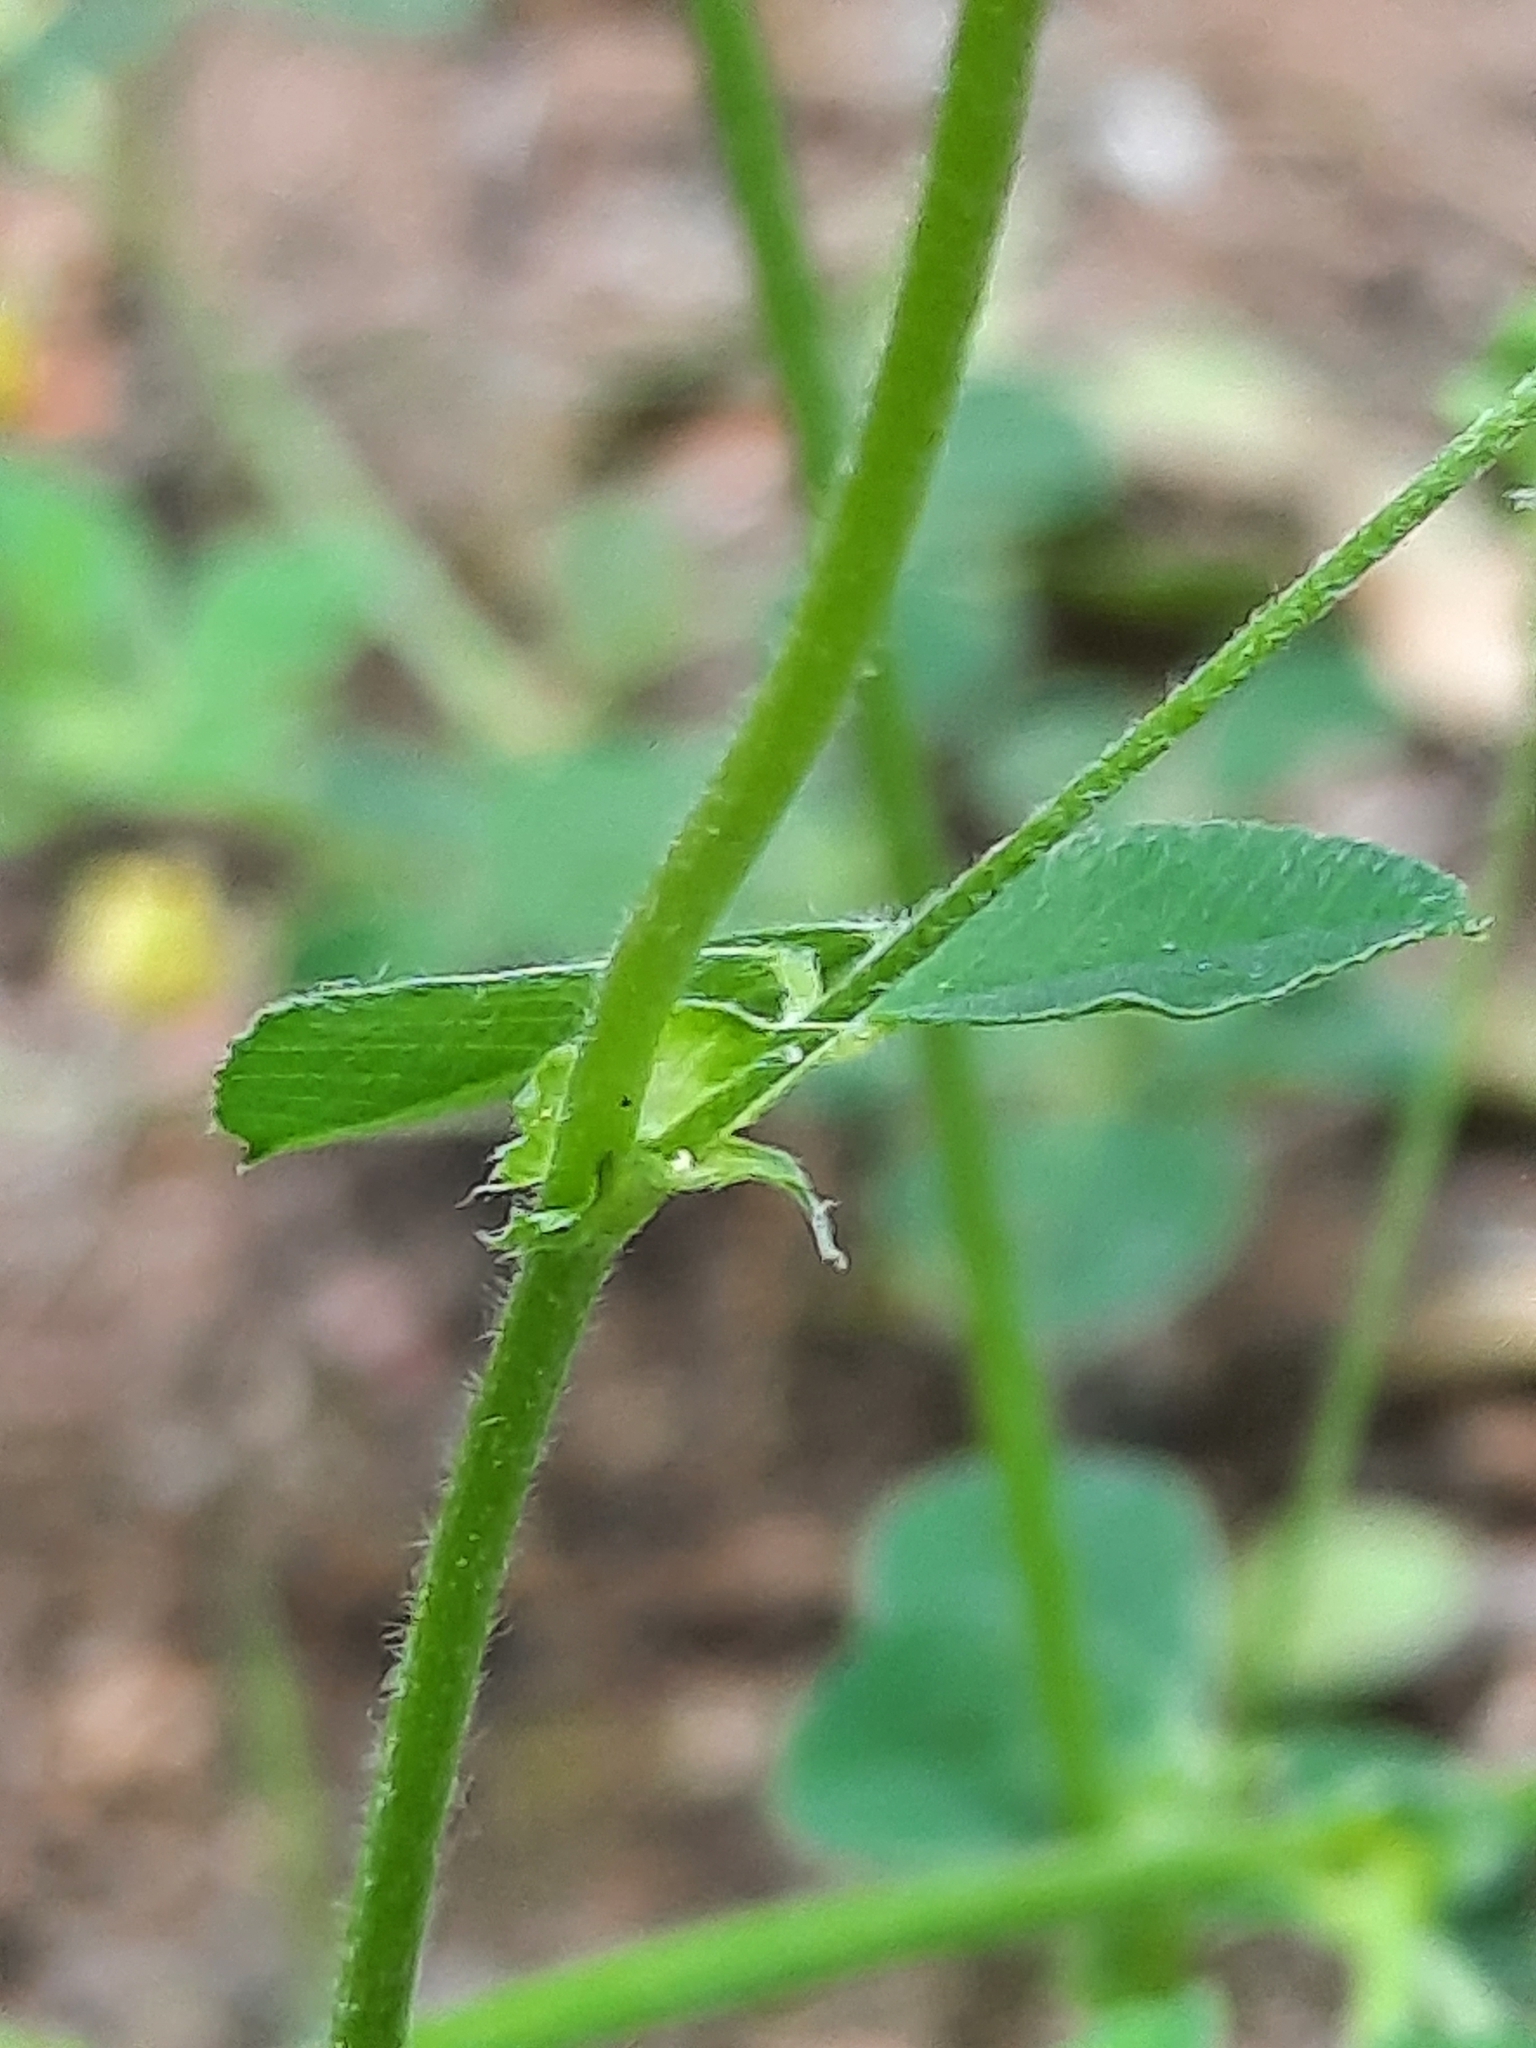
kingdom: Plantae
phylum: Tracheophyta
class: Magnoliopsida
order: Fabales
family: Fabaceae
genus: Medicago
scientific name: Medicago lupulina
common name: Black medick
